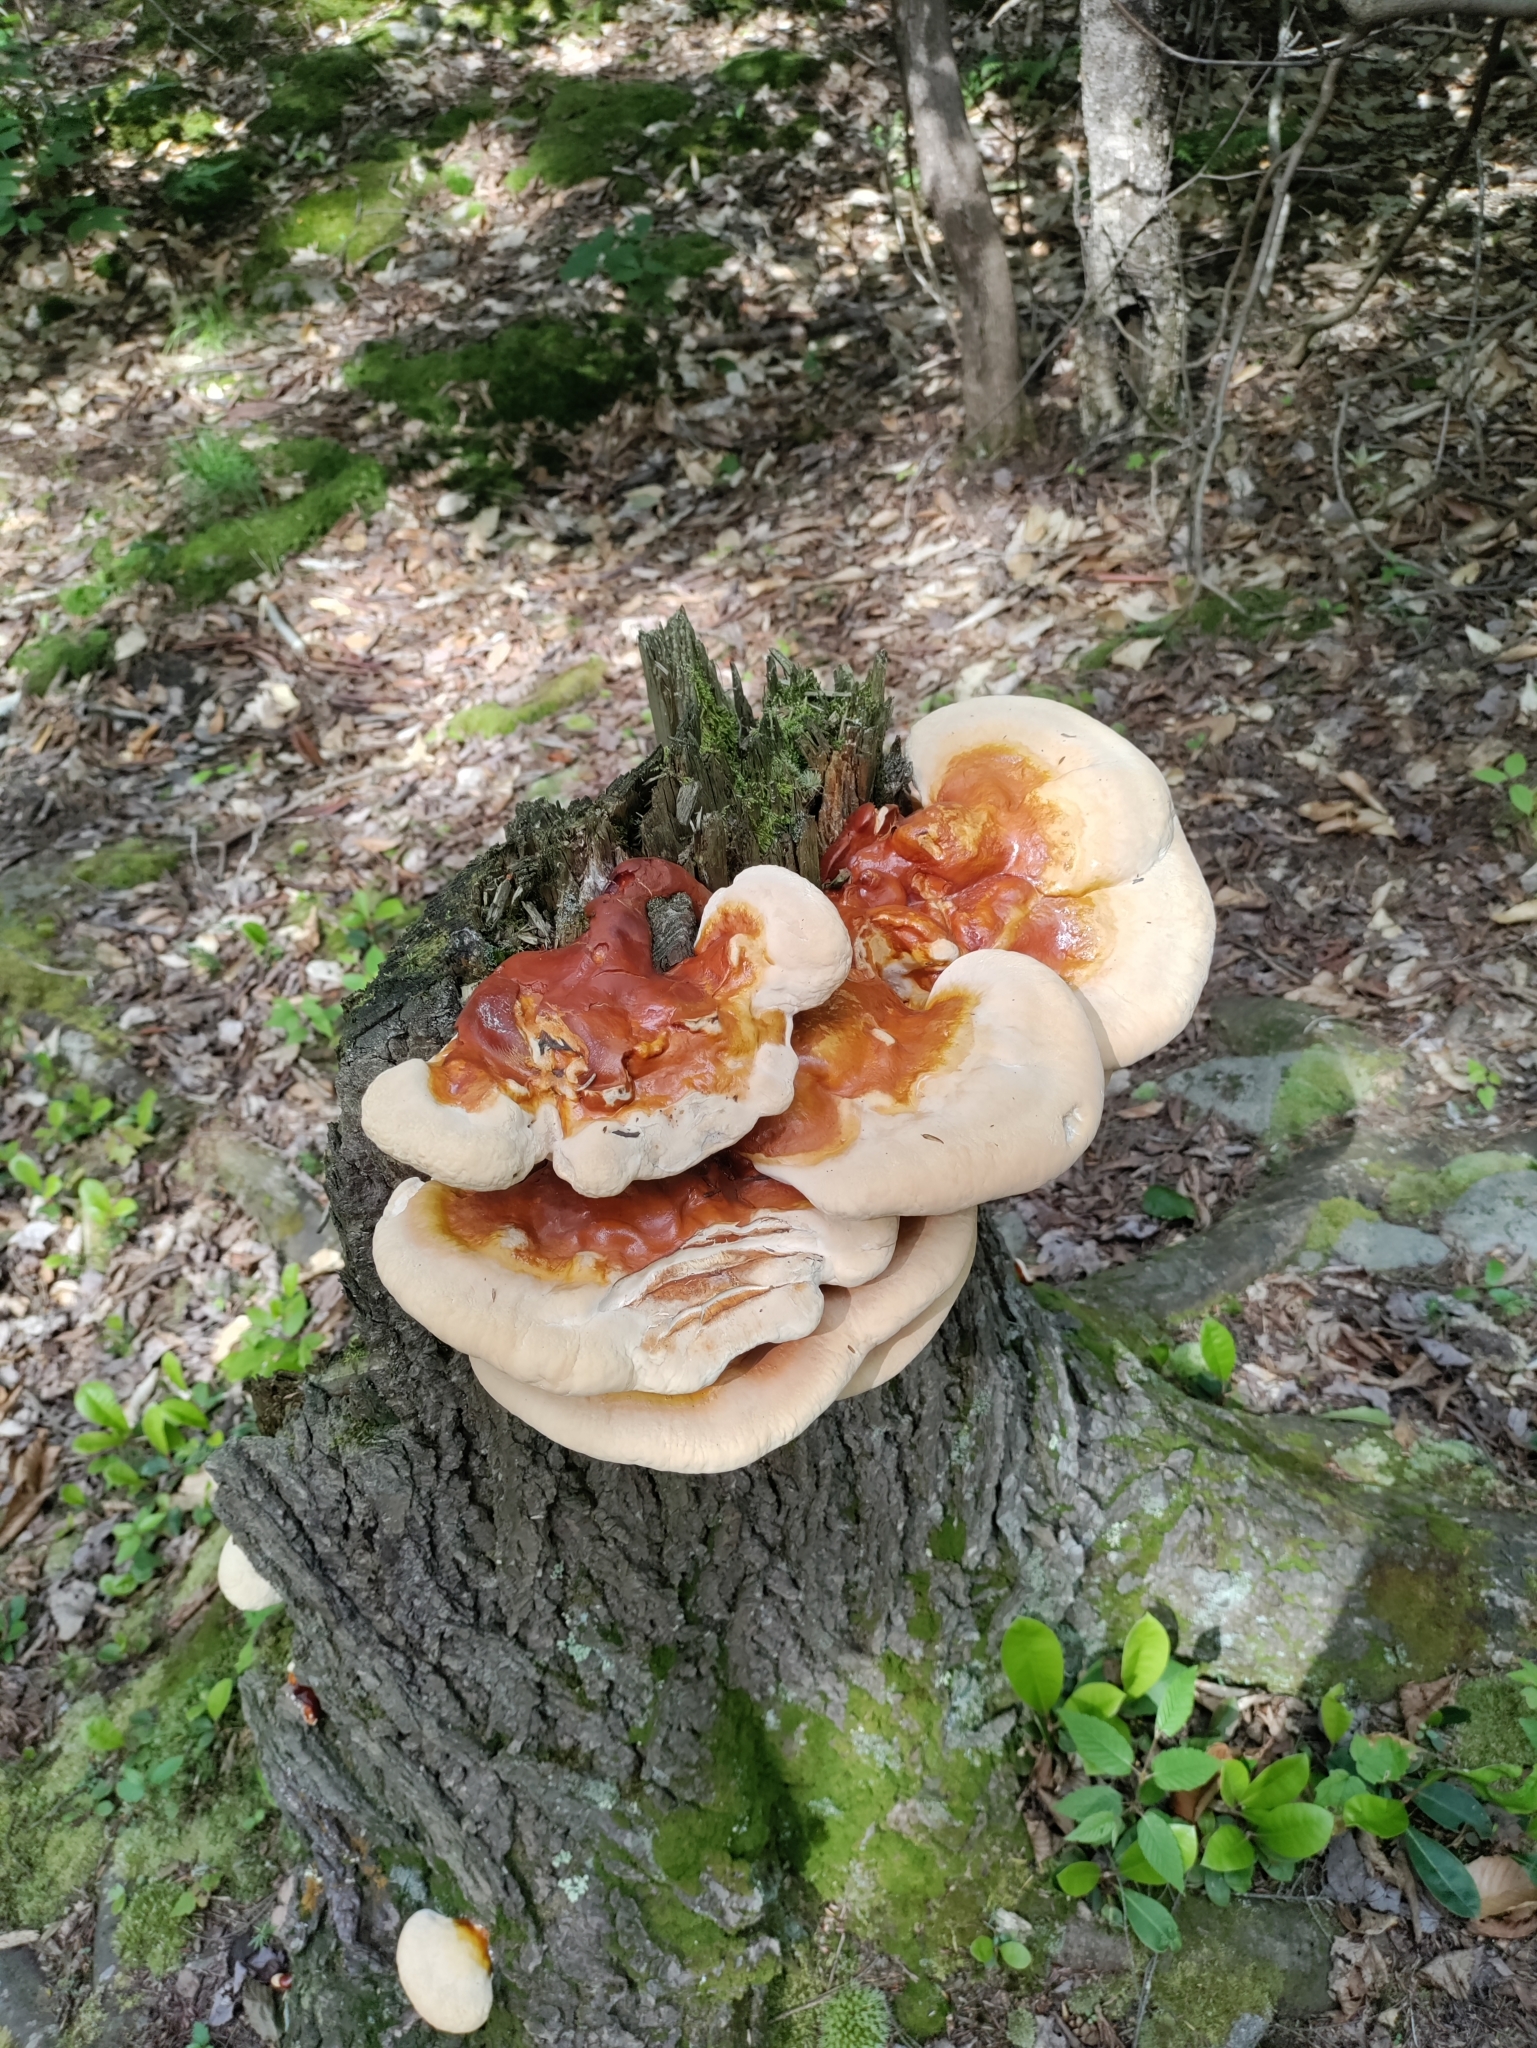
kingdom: Fungi
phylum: Basidiomycota
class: Agaricomycetes
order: Polyporales
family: Polyporaceae
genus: Ganoderma
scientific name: Ganoderma tsugae
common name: Hemlock varnish shelf
